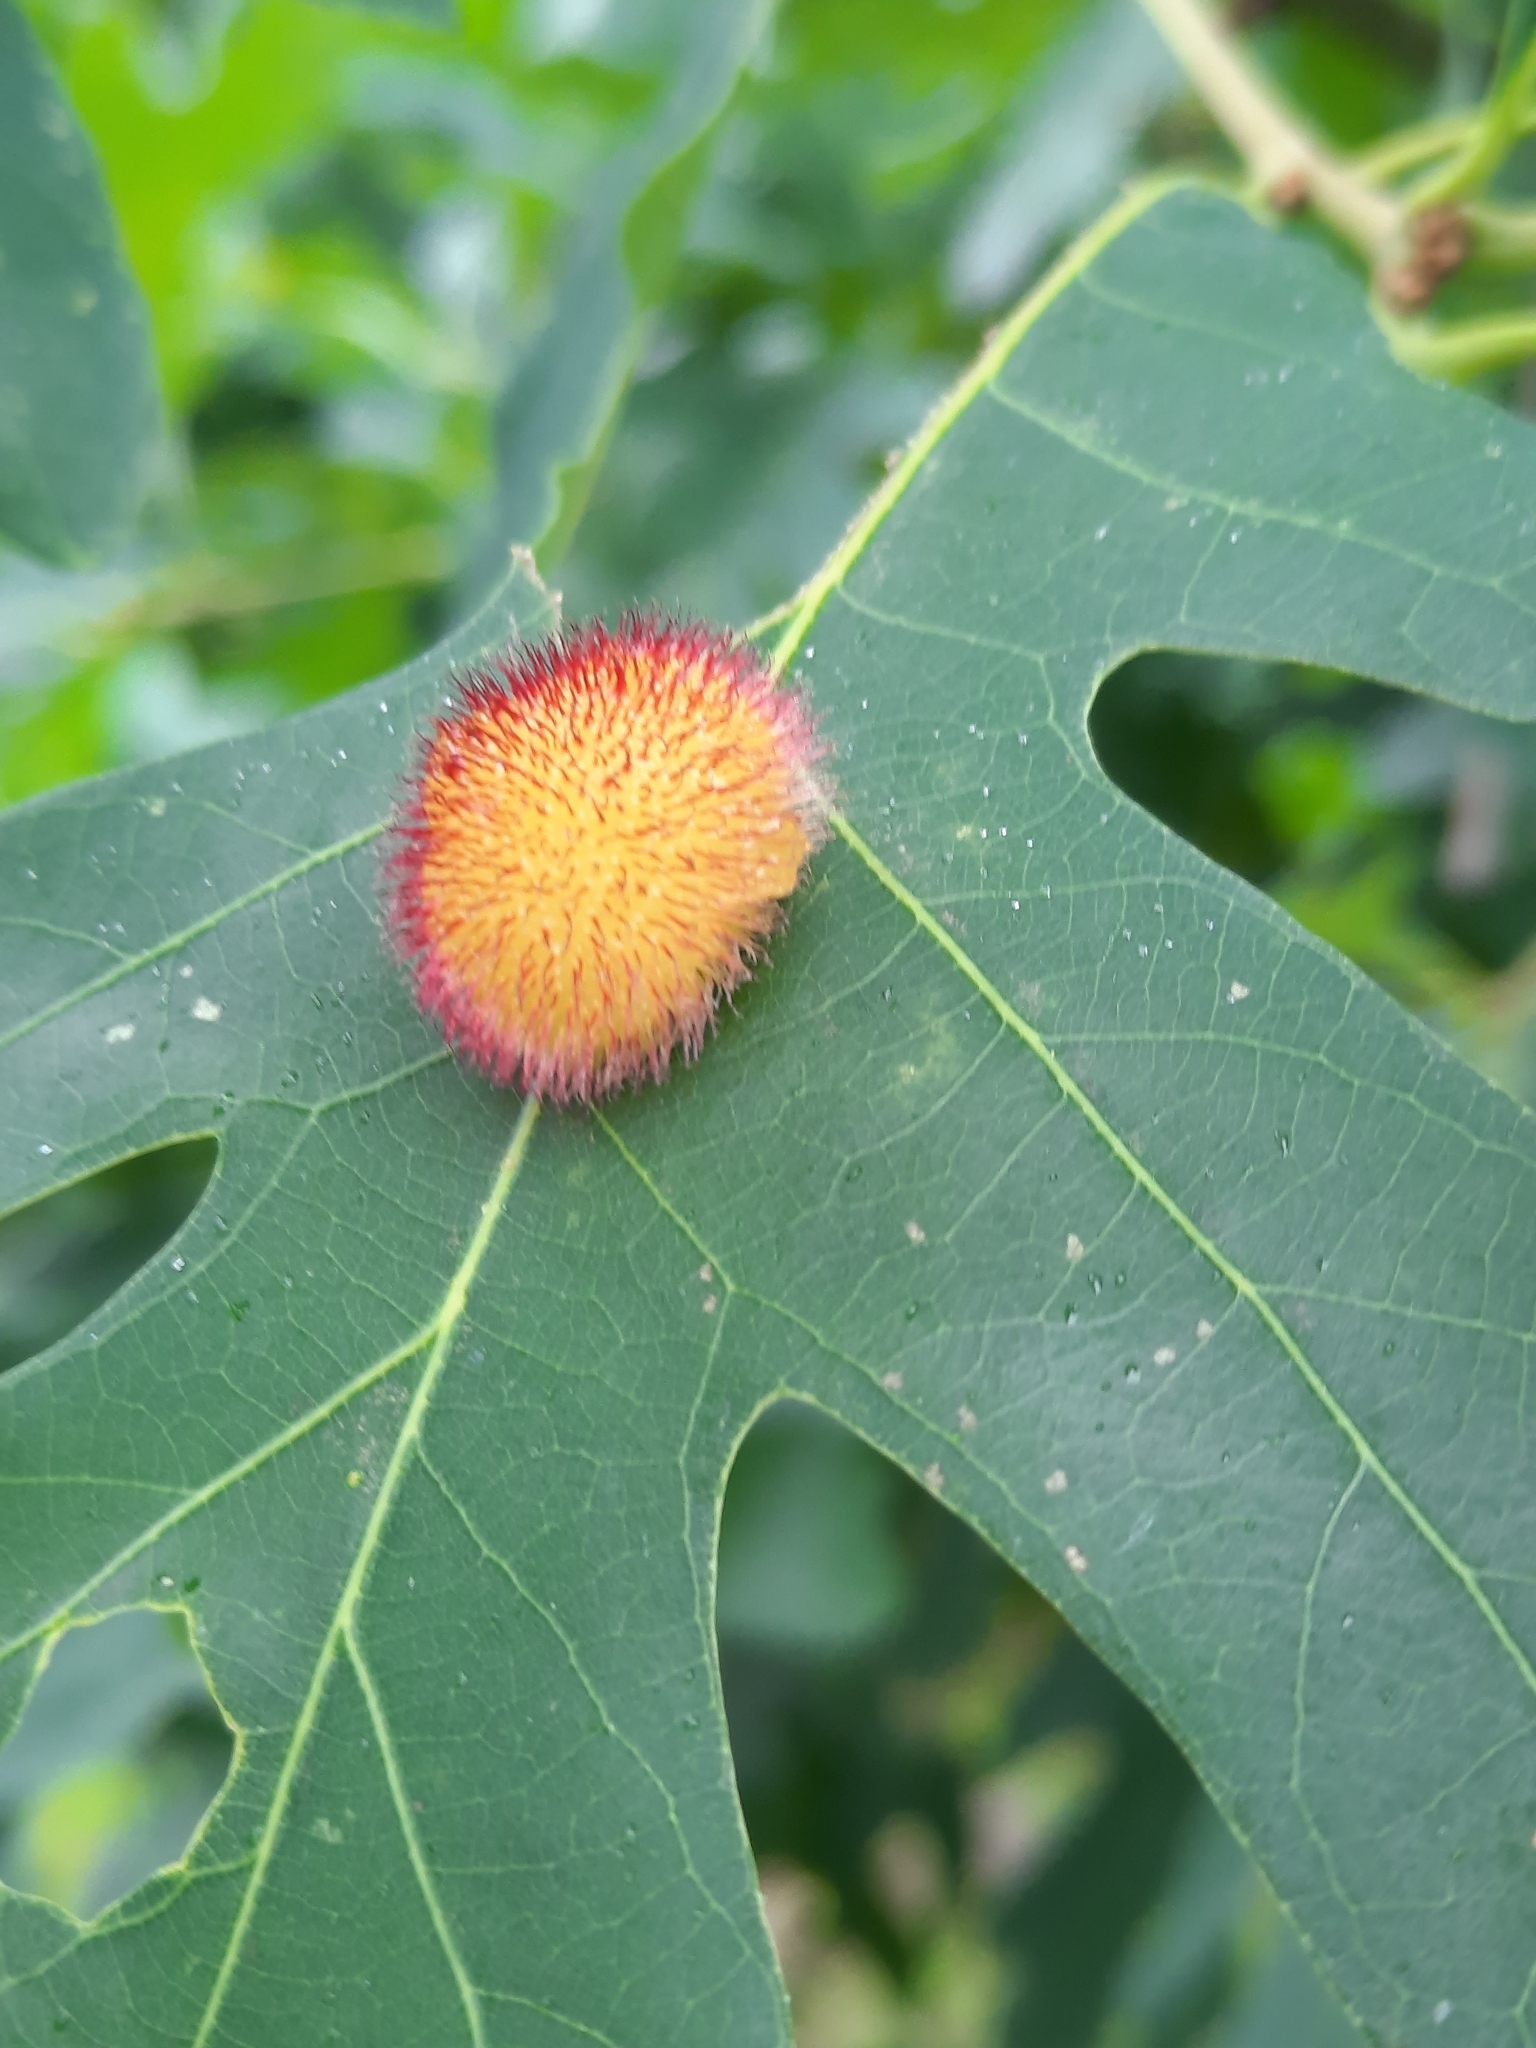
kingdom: Animalia
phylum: Arthropoda
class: Insecta
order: Hymenoptera
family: Cynipidae
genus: Acraspis
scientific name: Acraspis erinacei
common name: Hedgehog gall wasp
